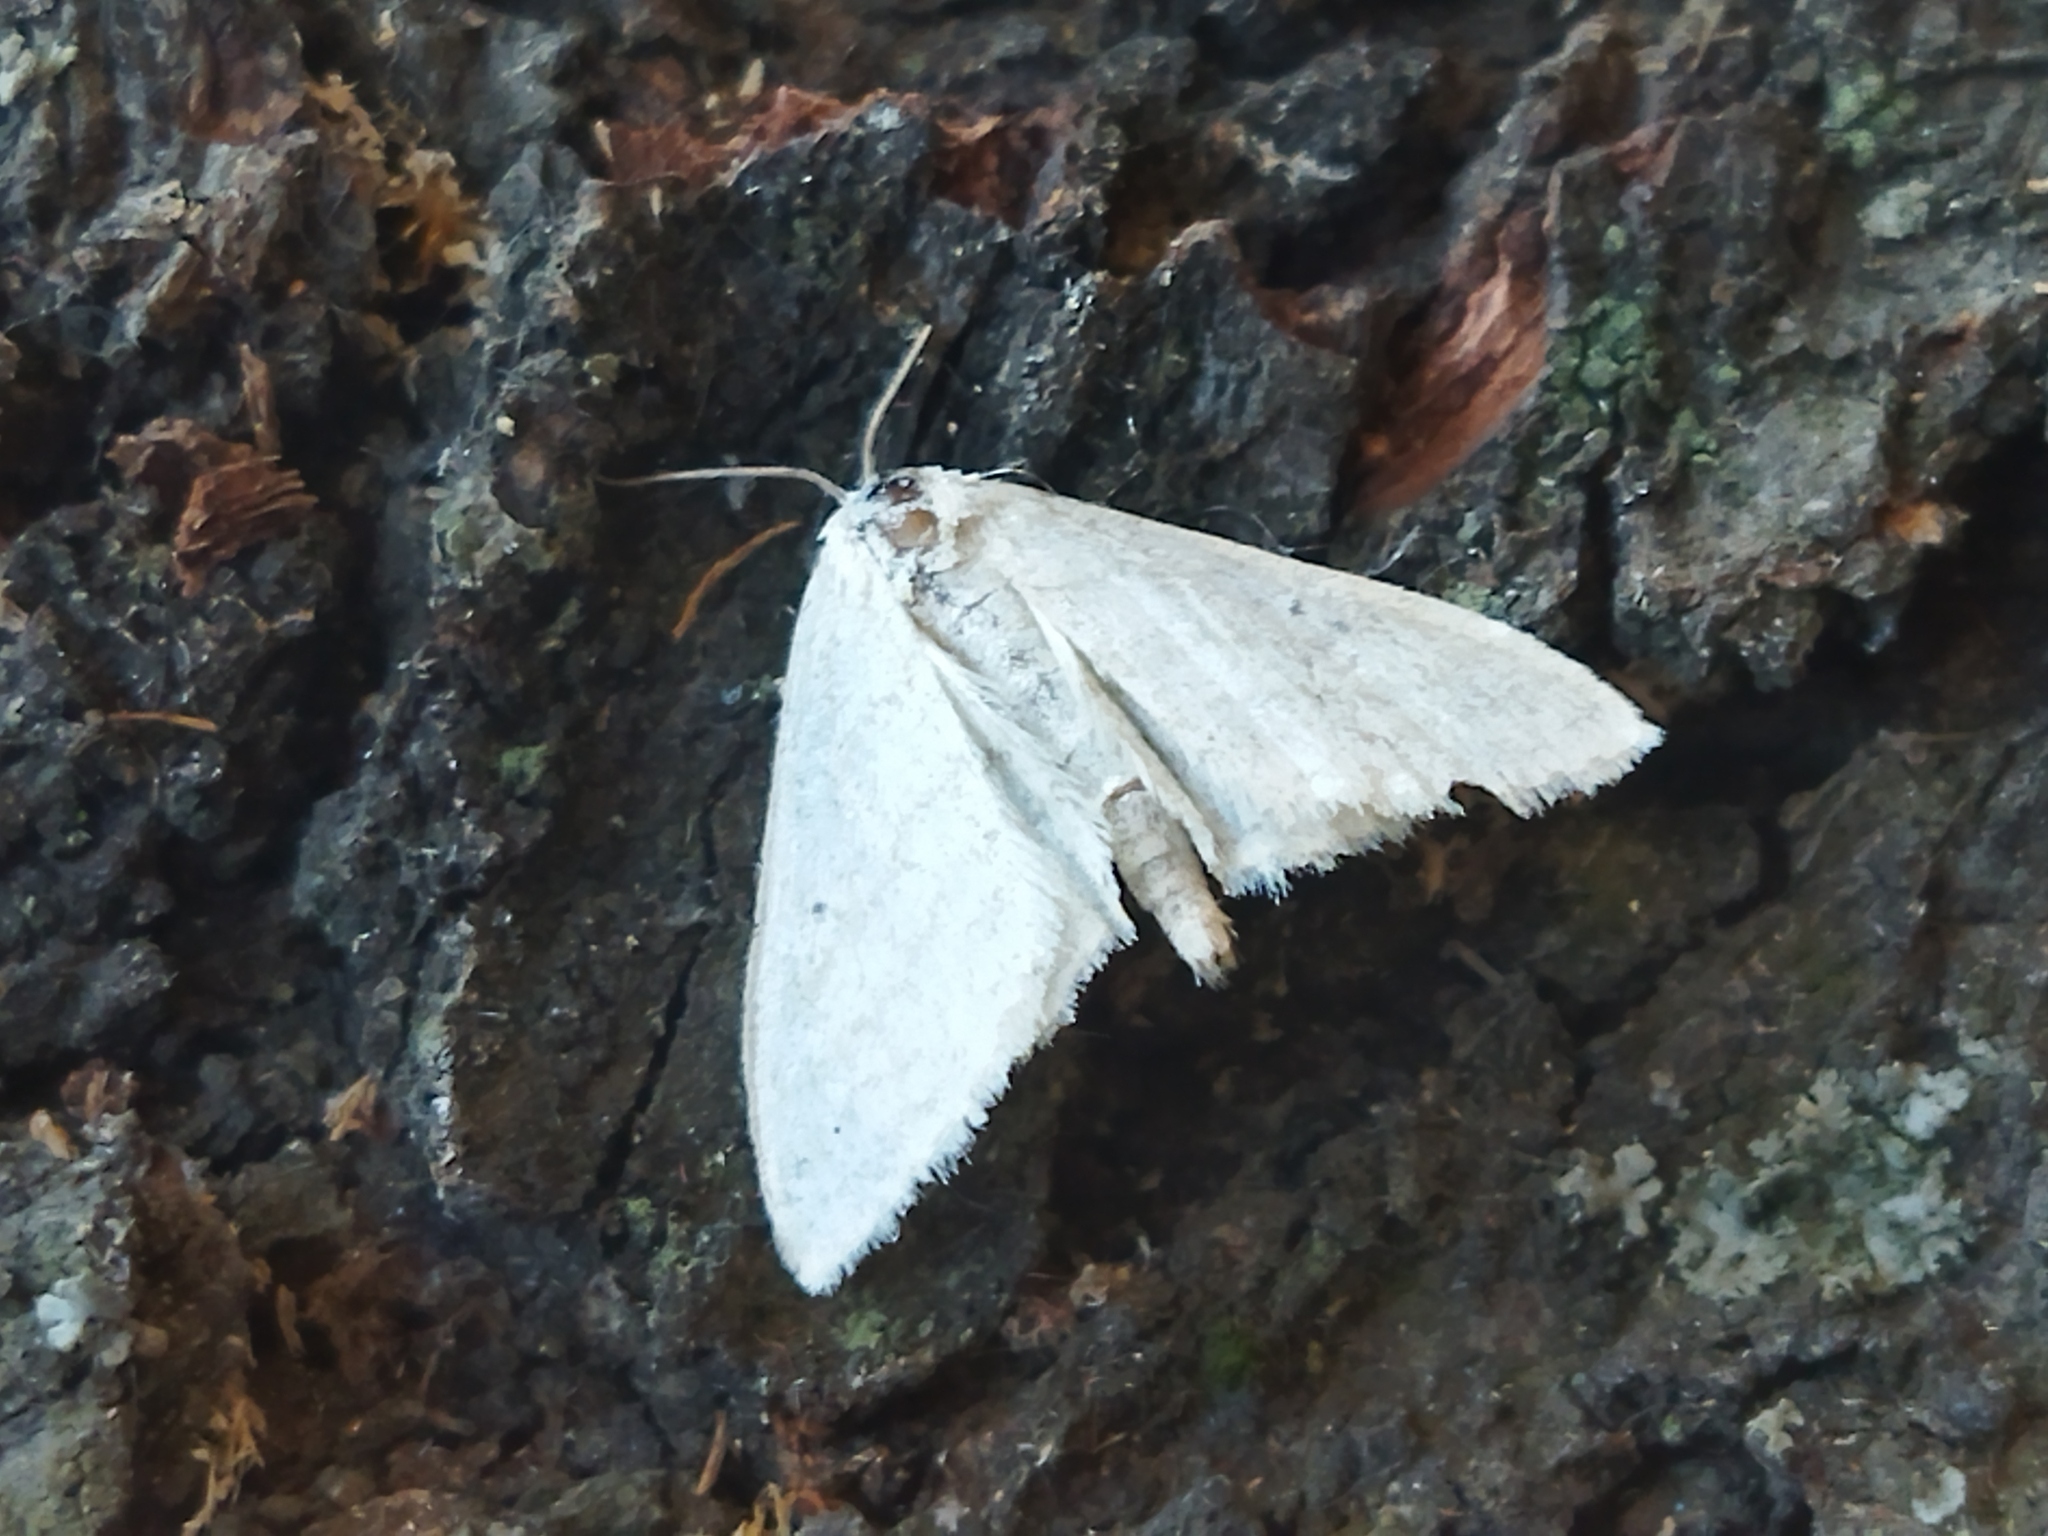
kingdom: Animalia
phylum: Arthropoda
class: Insecta
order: Lepidoptera
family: Geometridae
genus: Scopula
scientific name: Scopula
